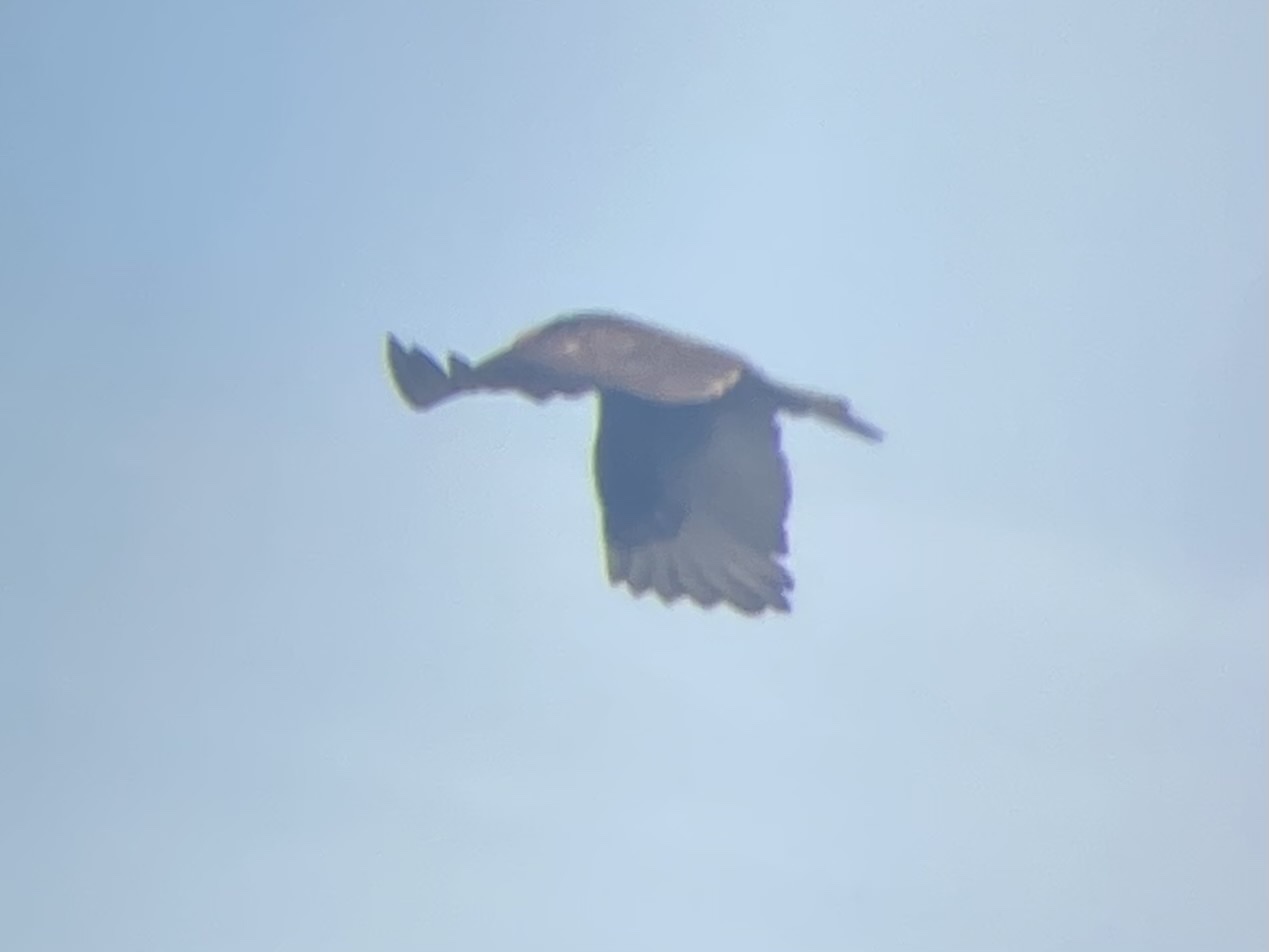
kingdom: Animalia
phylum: Chordata
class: Aves
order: Accipitriformes
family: Cathartidae
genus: Cathartes
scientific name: Cathartes aura
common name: Turkey vulture
